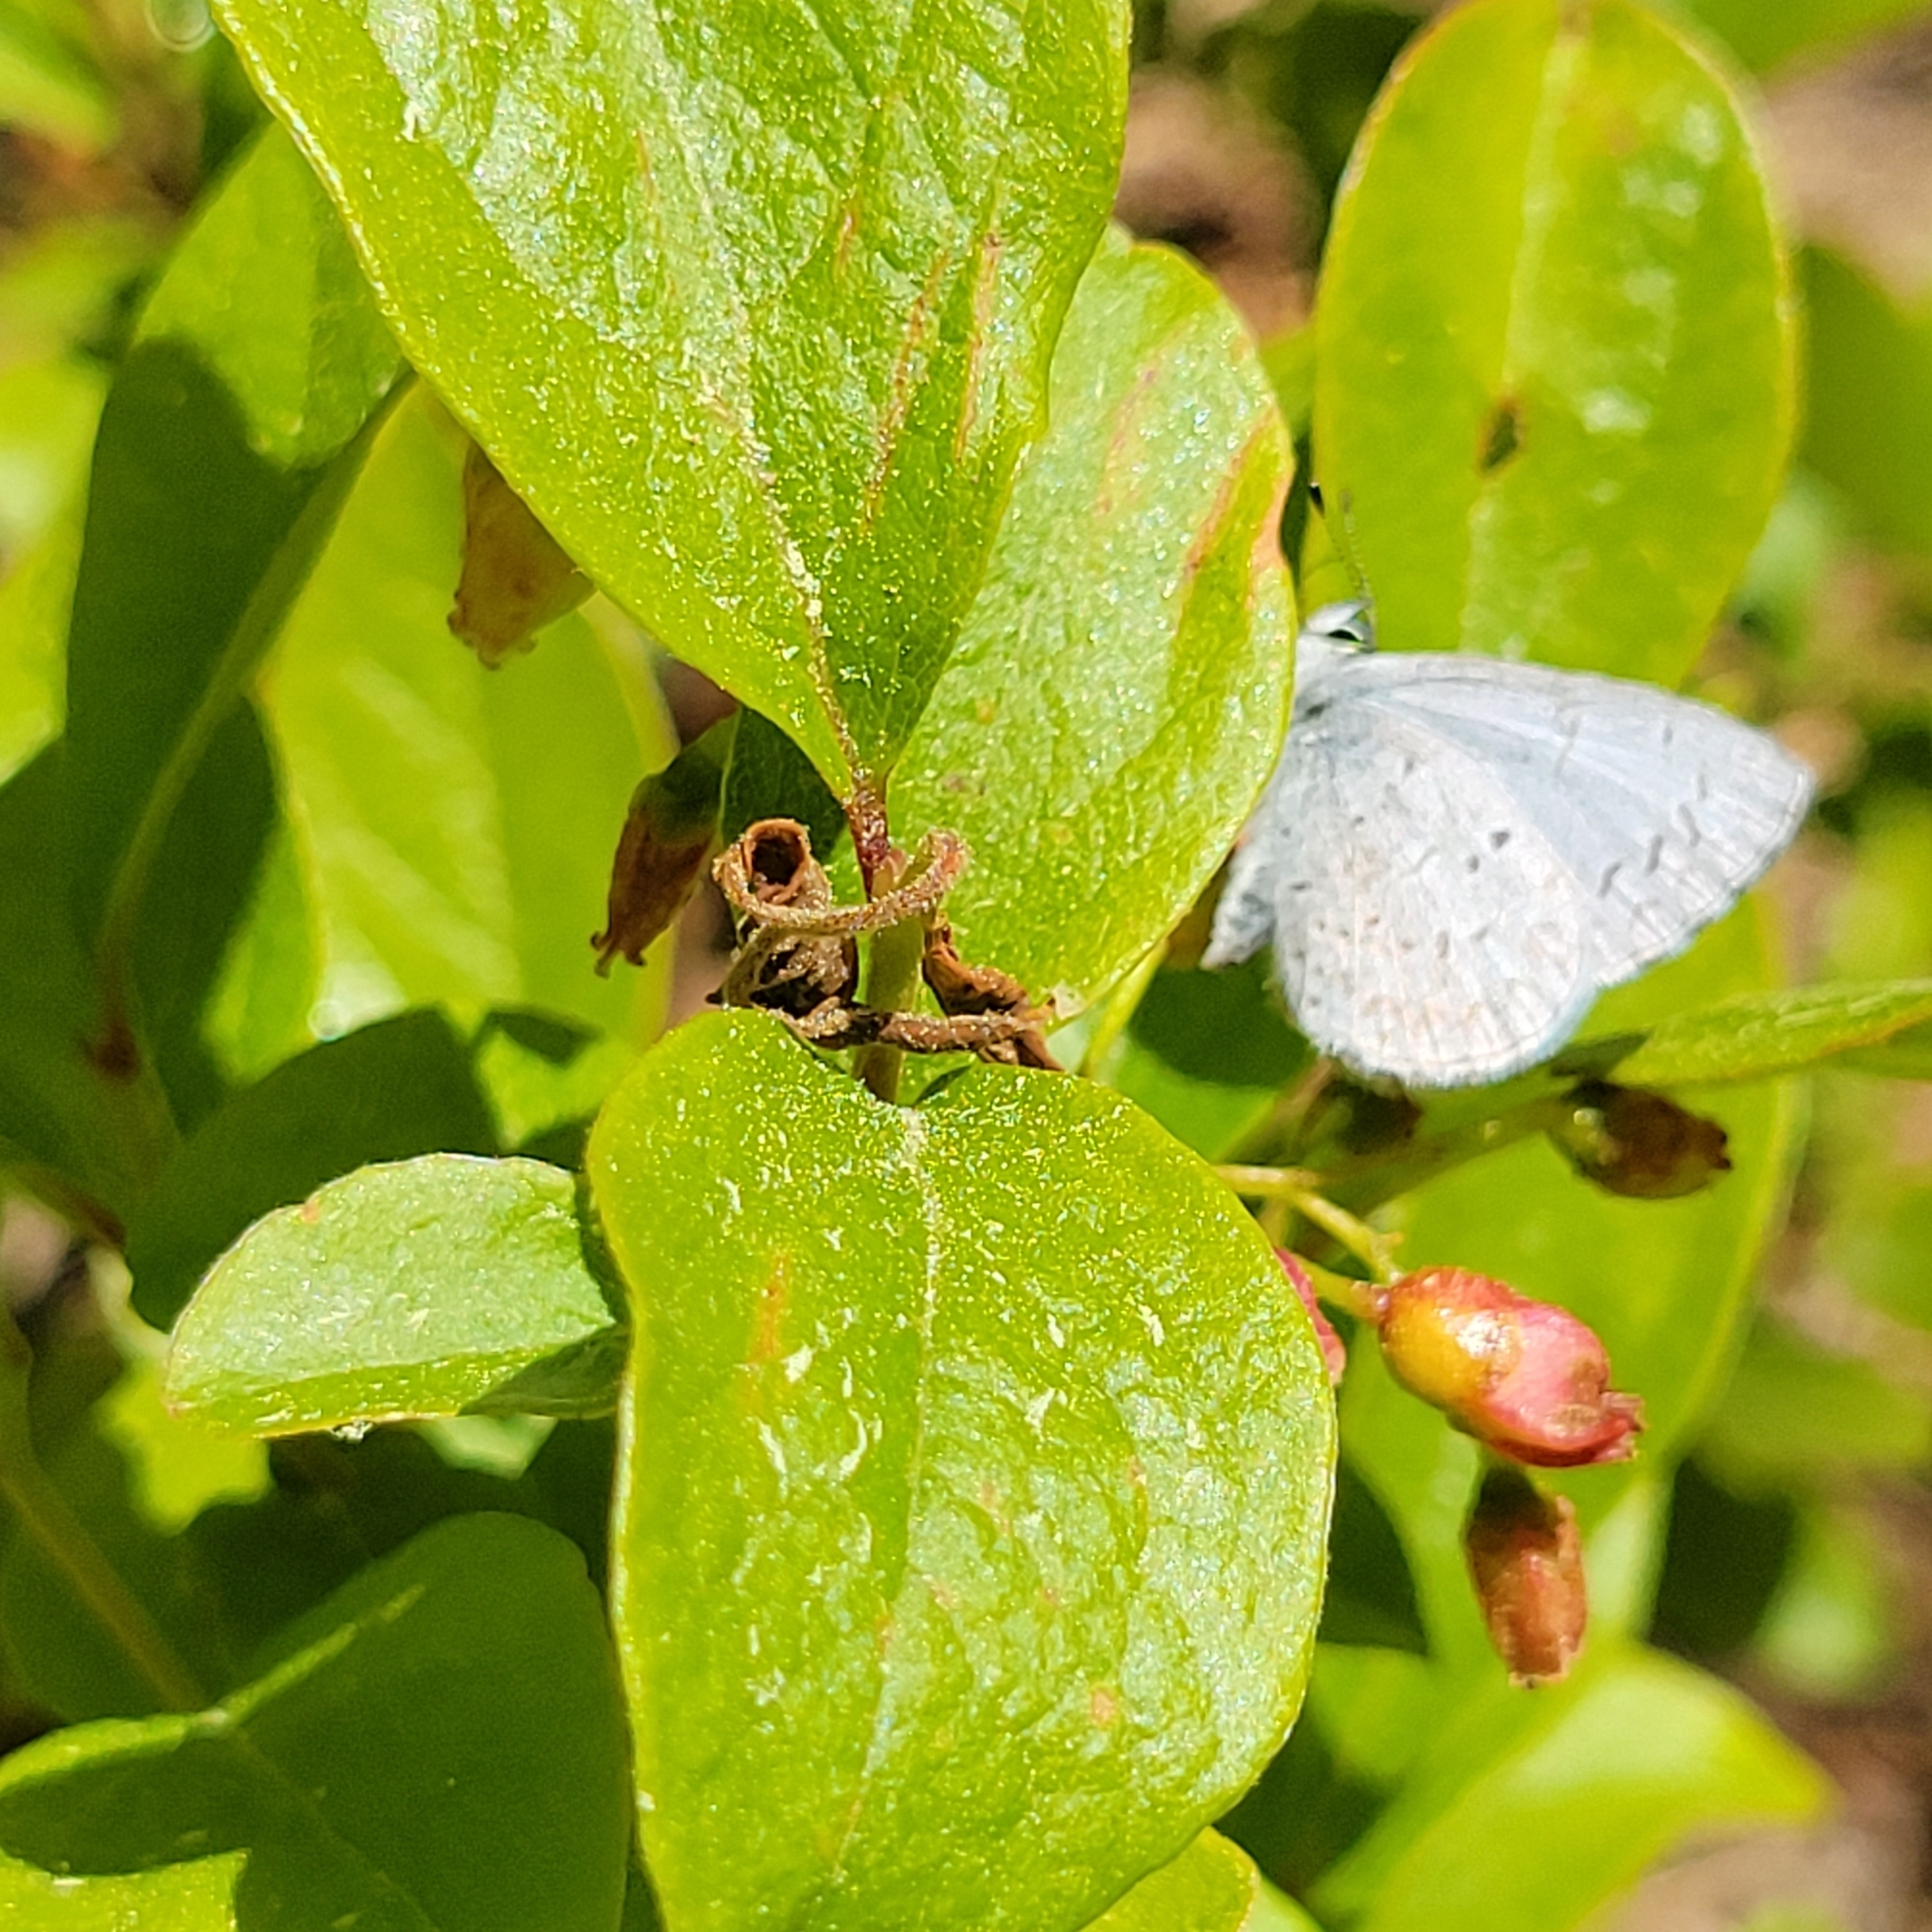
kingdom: Animalia
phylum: Arthropoda
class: Insecta
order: Lepidoptera
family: Lycaenidae
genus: Celastrina
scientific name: Celastrina serotina
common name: Cherry gall azure
